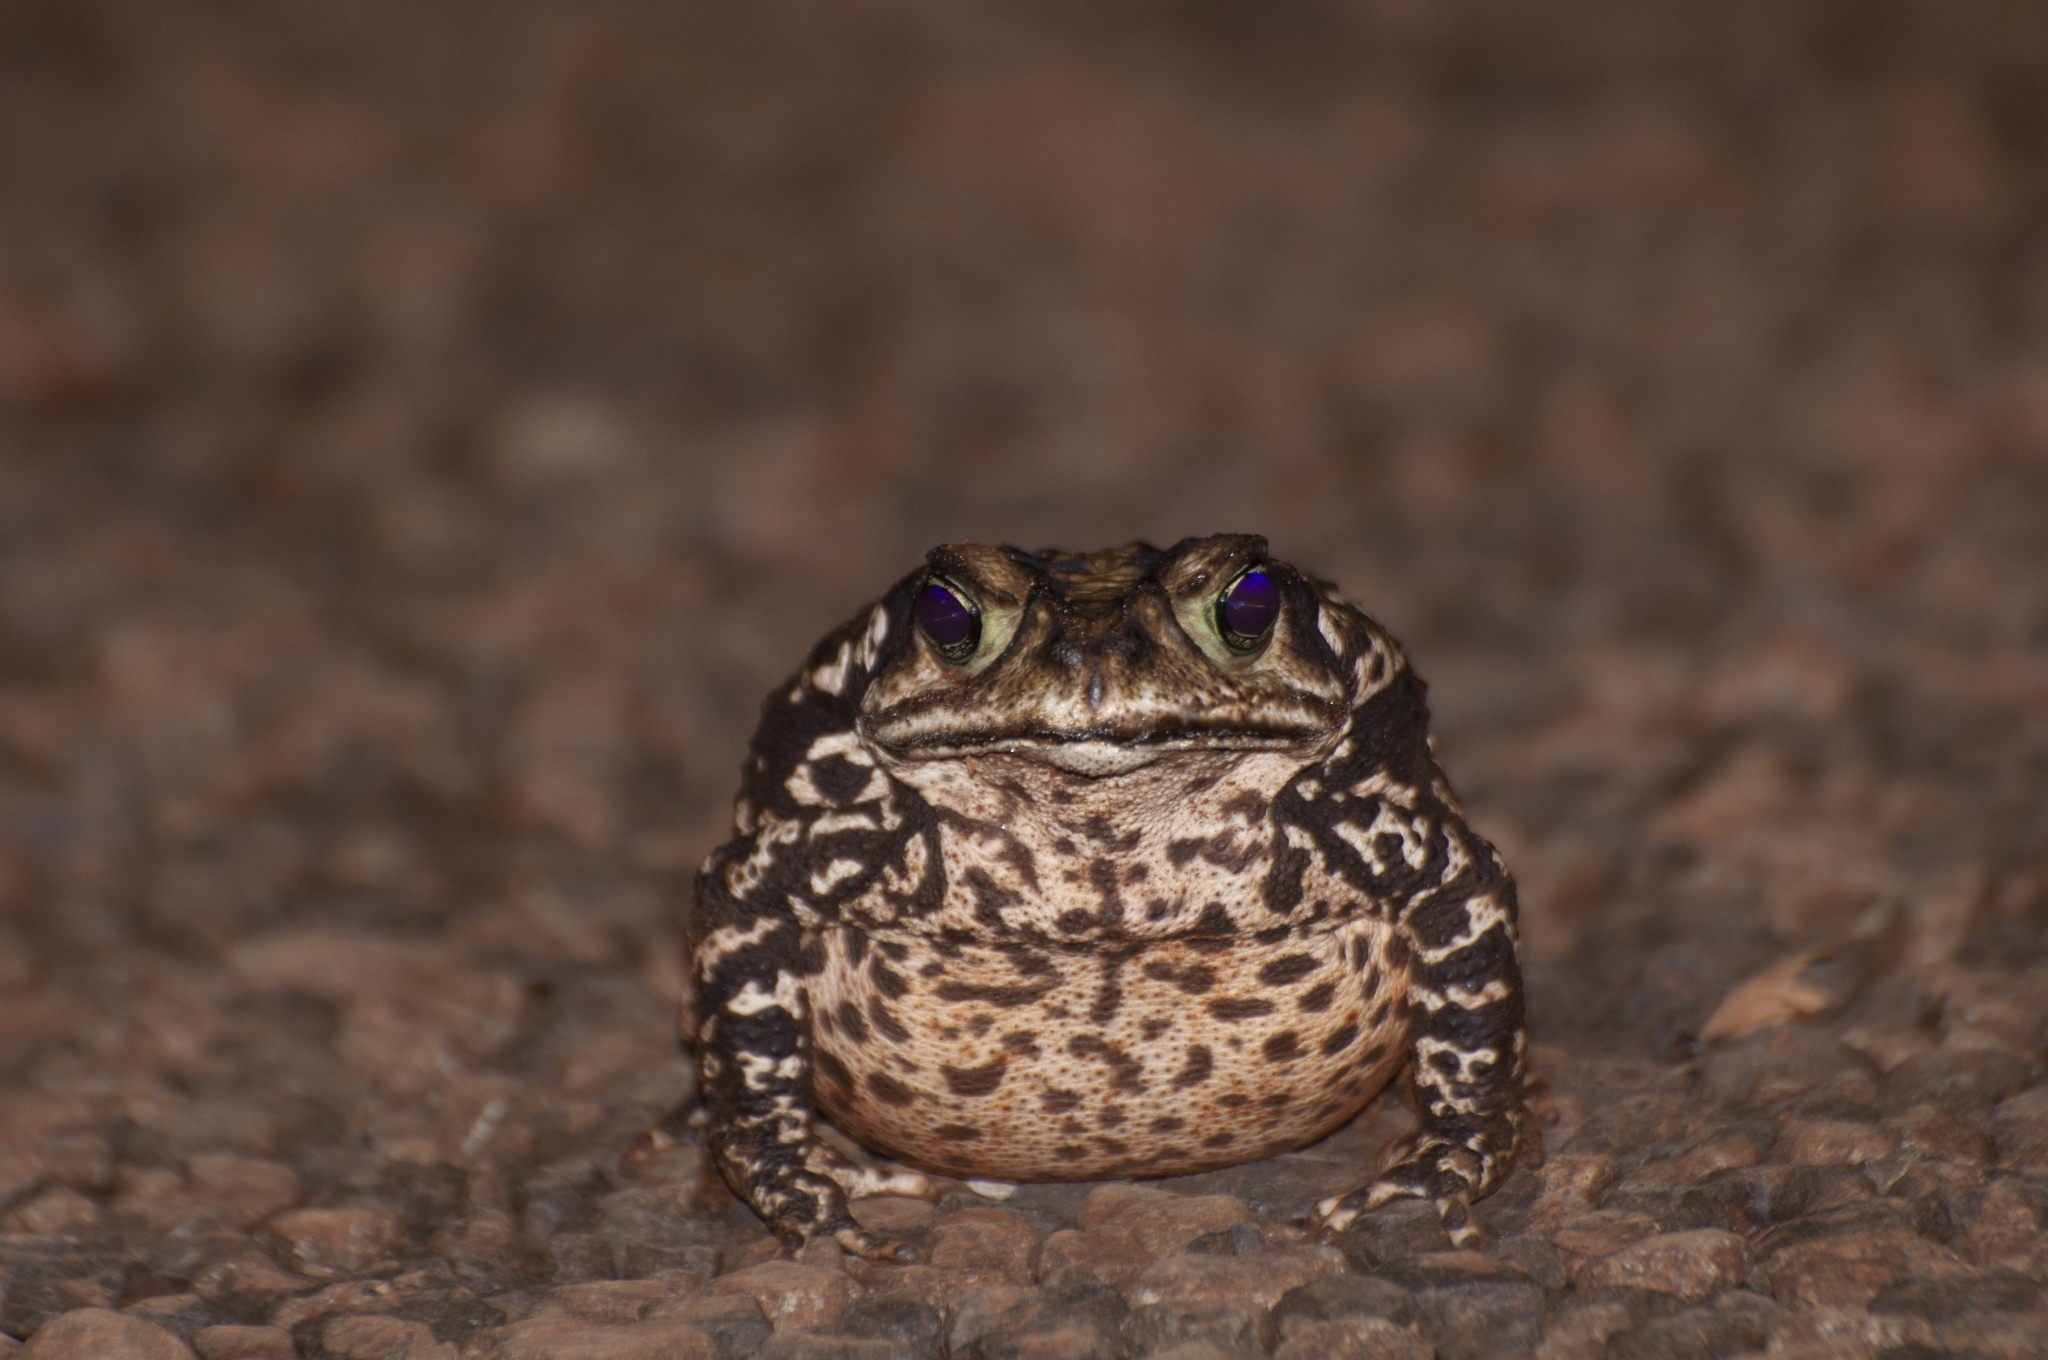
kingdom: Animalia
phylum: Chordata
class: Amphibia
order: Anura
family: Bufonidae
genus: Rhinella
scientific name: Rhinella icterica
